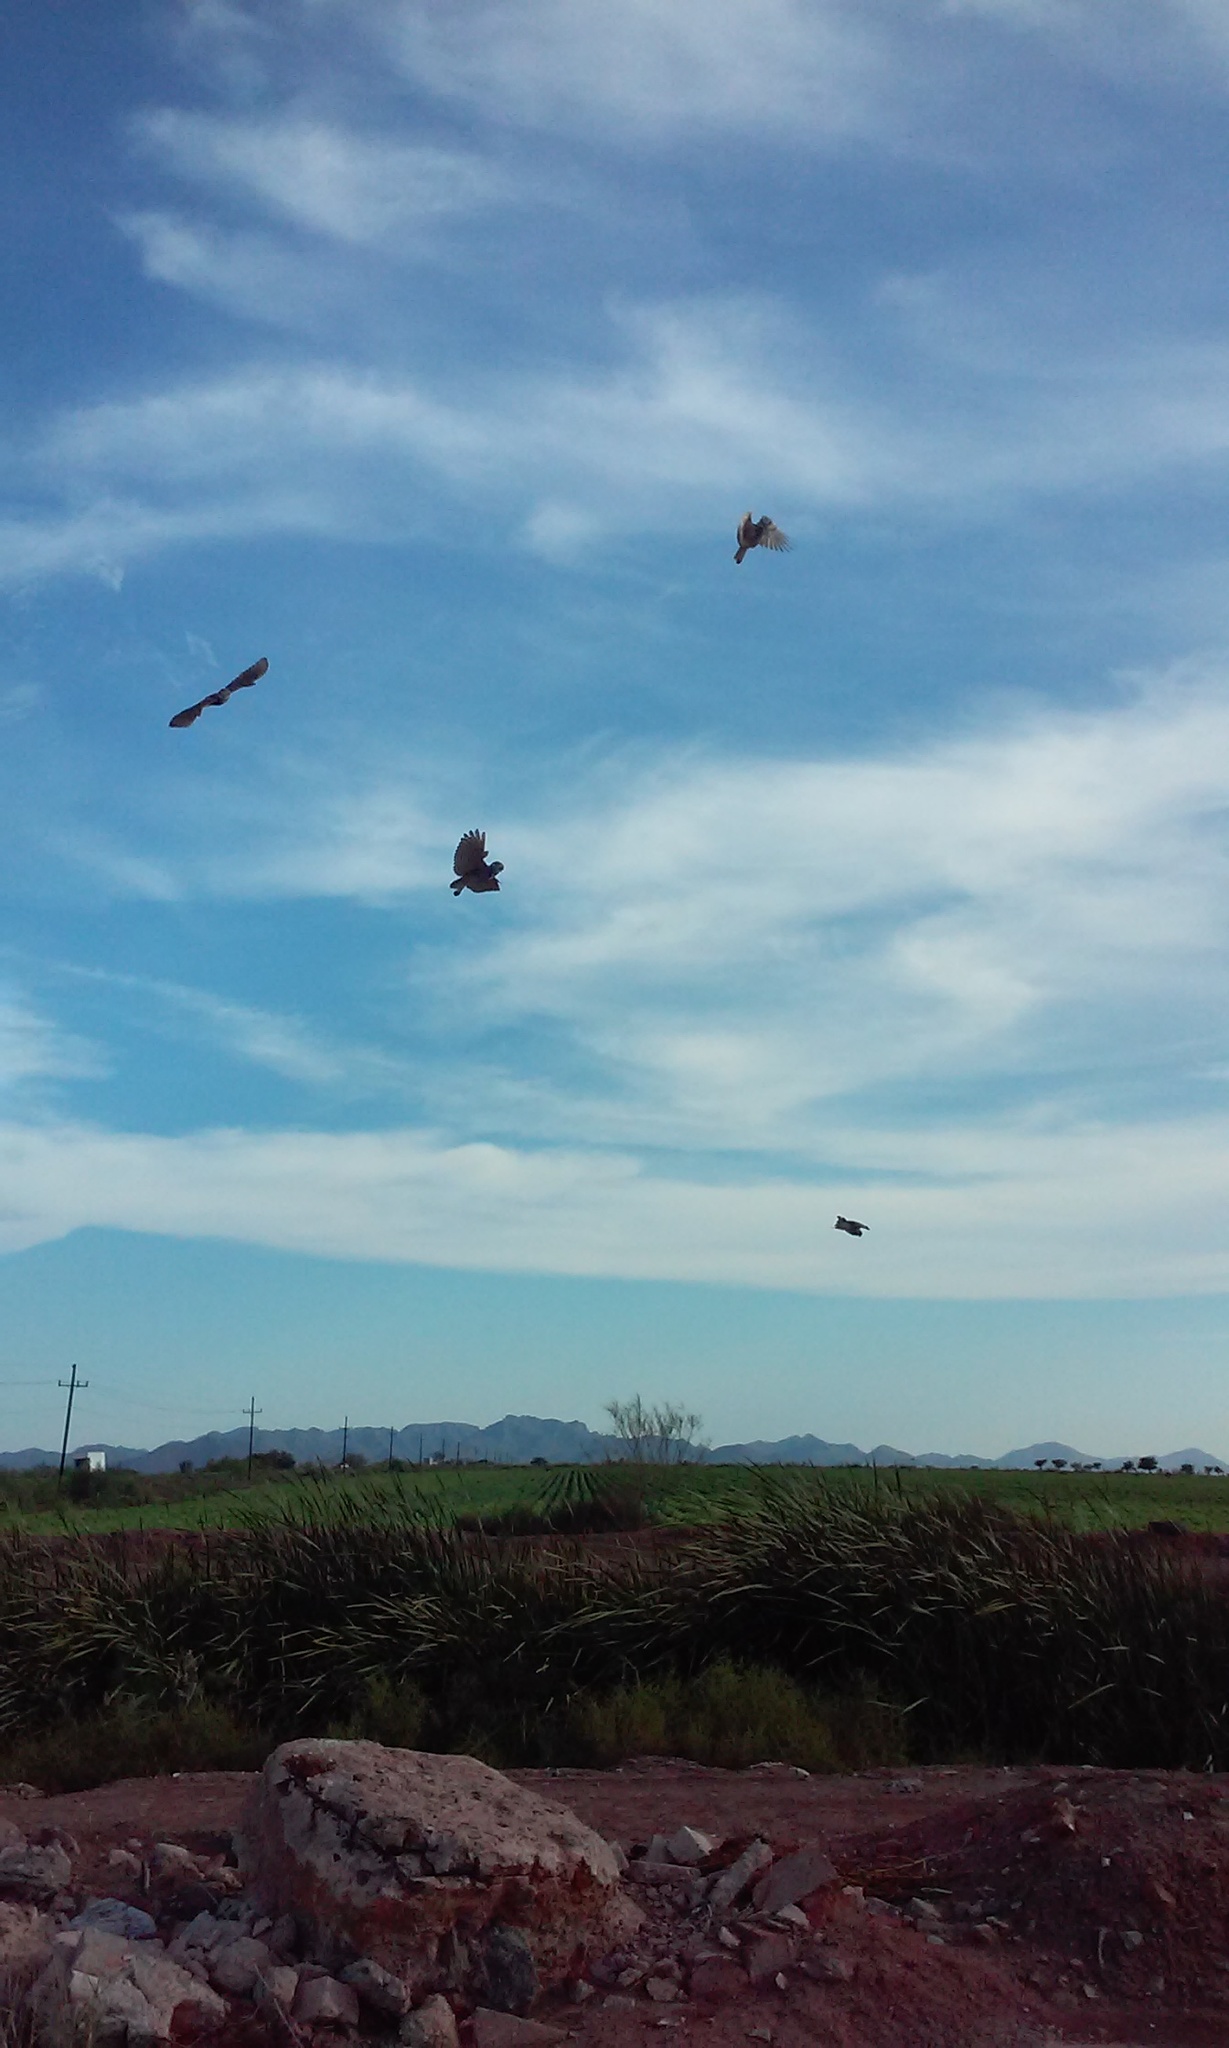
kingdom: Animalia
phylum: Chordata
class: Aves
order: Strigiformes
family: Strigidae
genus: Athene
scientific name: Athene cunicularia
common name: Burrowing owl
